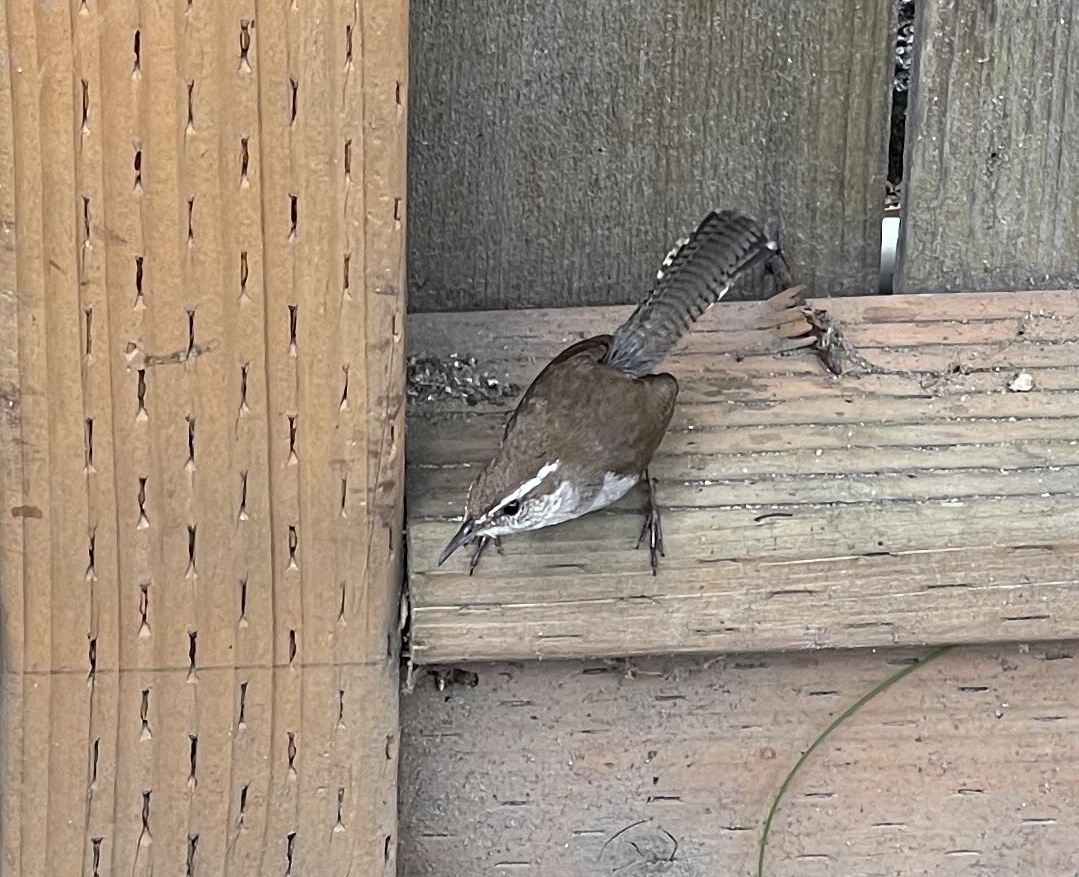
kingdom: Animalia
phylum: Chordata
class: Aves
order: Passeriformes
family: Troglodytidae
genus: Thryomanes
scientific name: Thryomanes bewickii
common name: Bewick's wren
